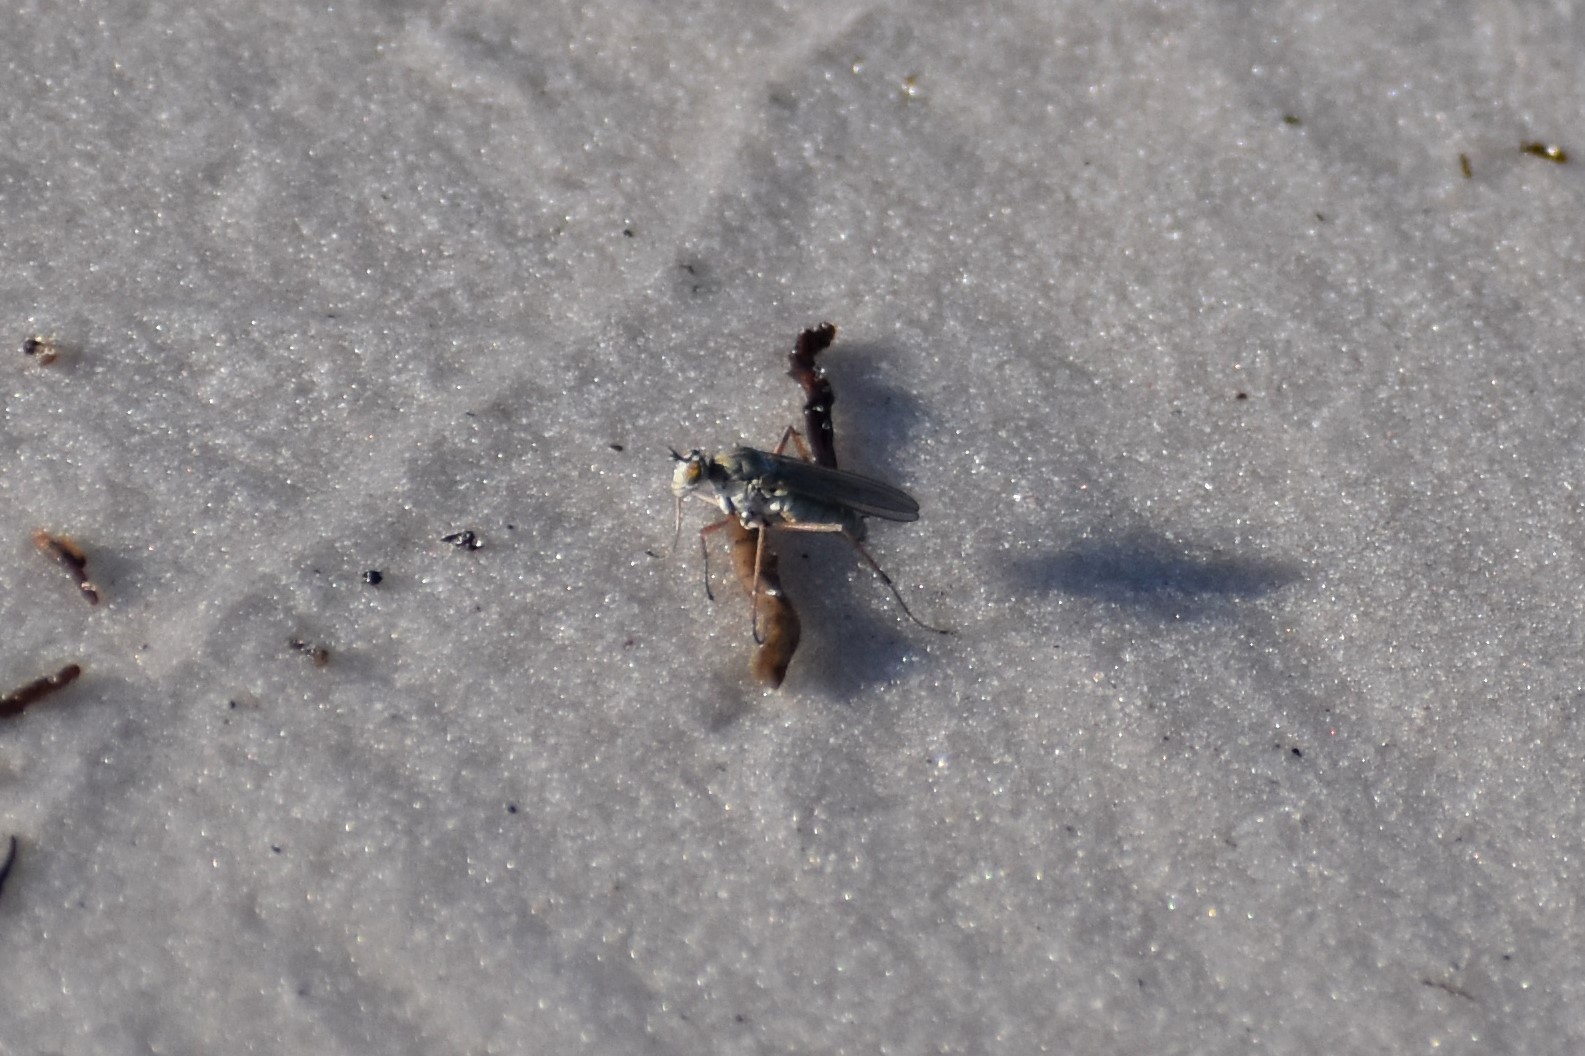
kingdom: Animalia
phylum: Arthropoda
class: Insecta
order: Diptera
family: Dolichopodidae
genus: Hypocharassus
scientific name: Hypocharassus pruinosus
